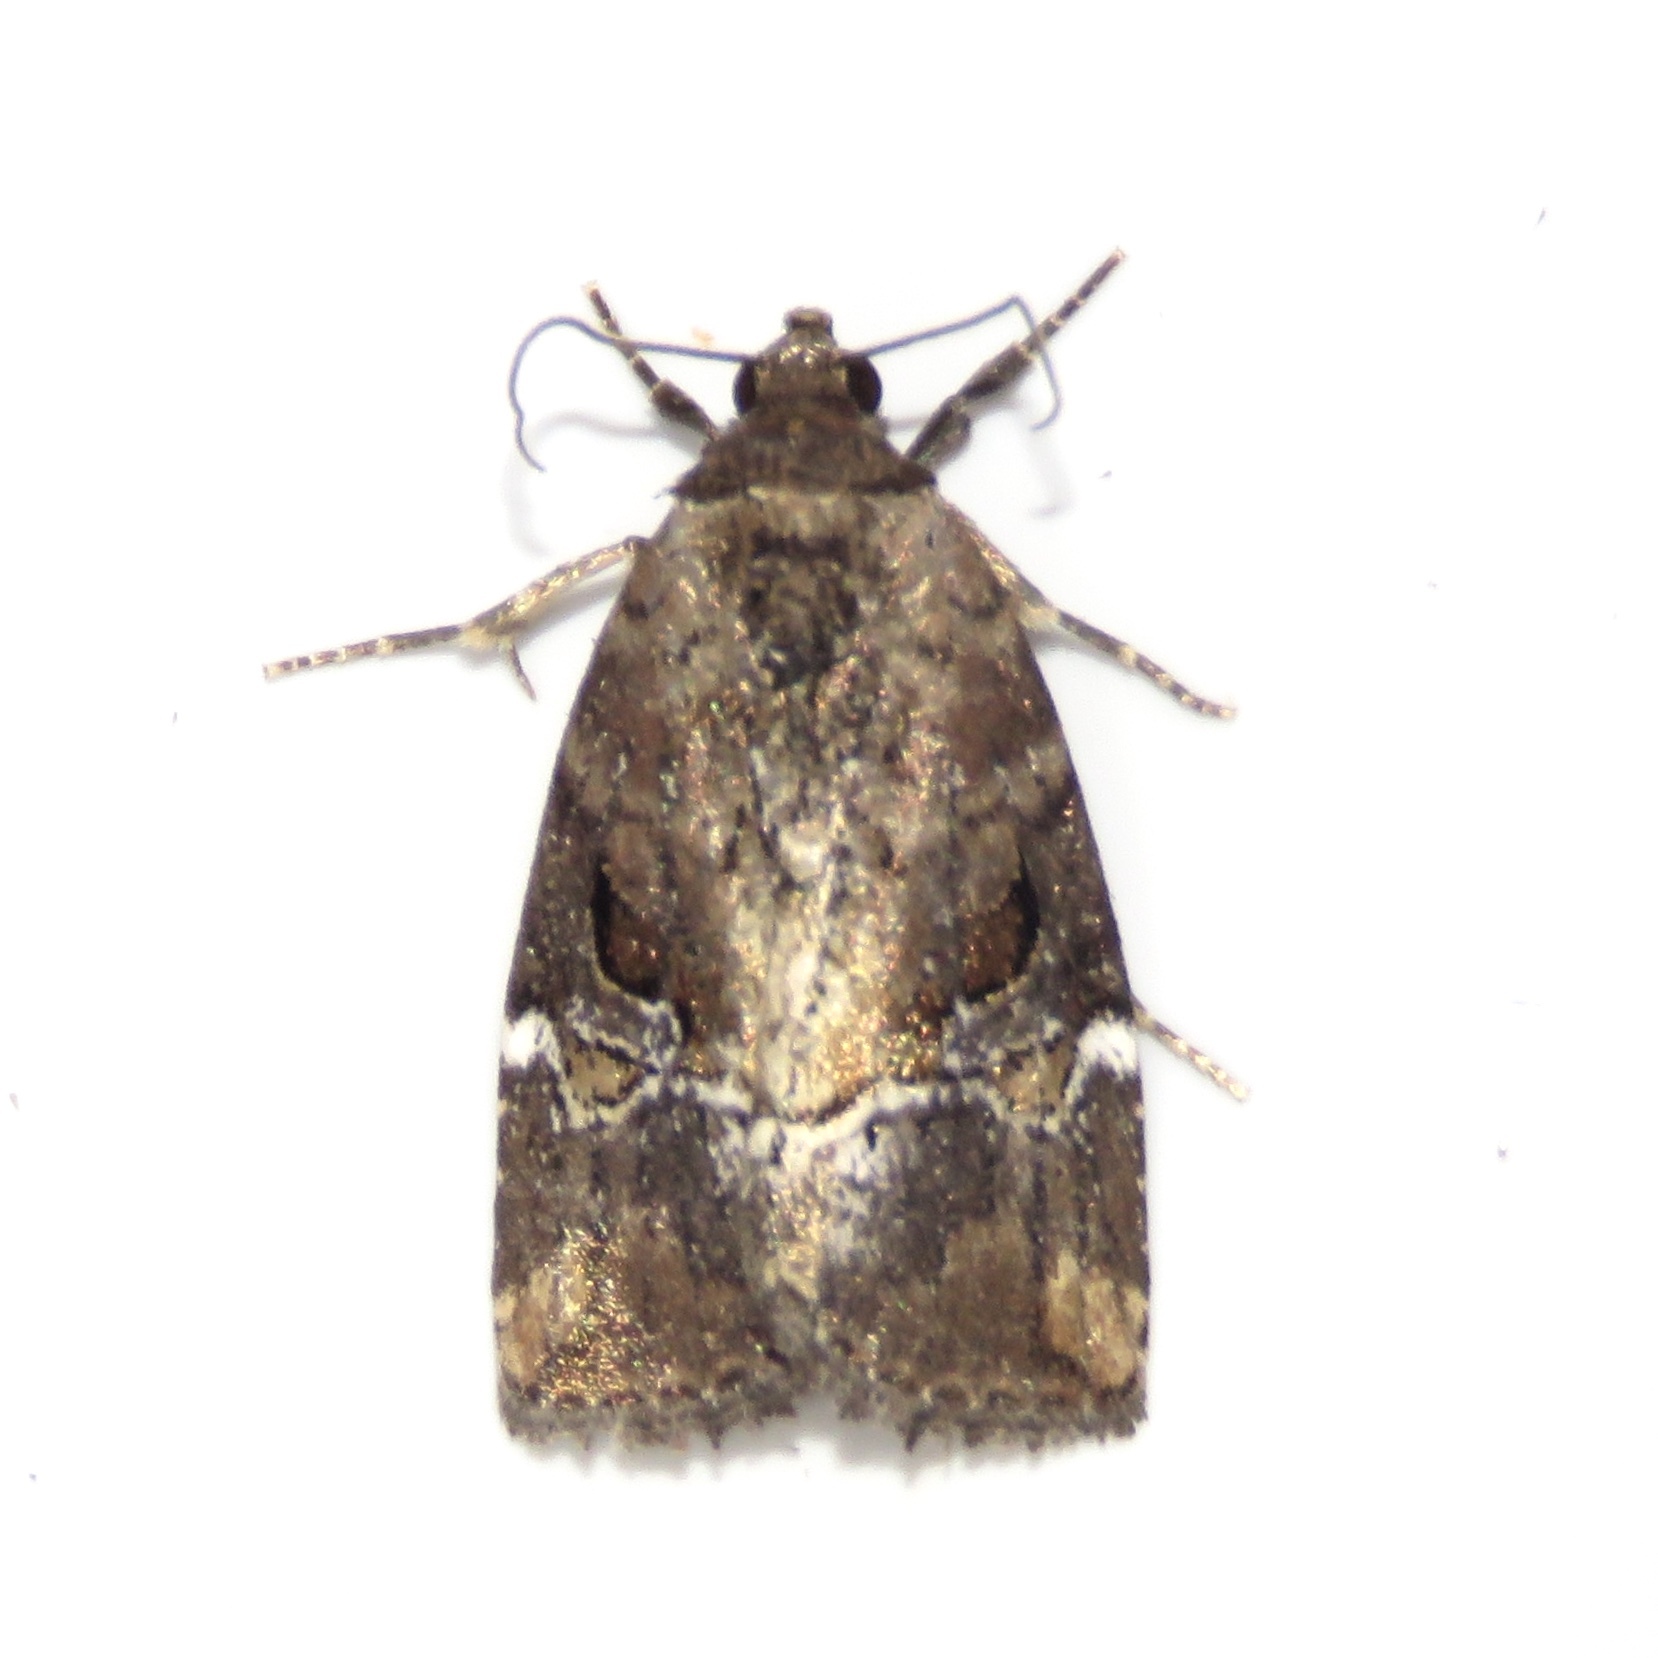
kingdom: Animalia
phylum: Arthropoda
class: Insecta
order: Lepidoptera
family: Noctuidae
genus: Elaphria
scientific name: Elaphria versicolor
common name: Fir harlequin
